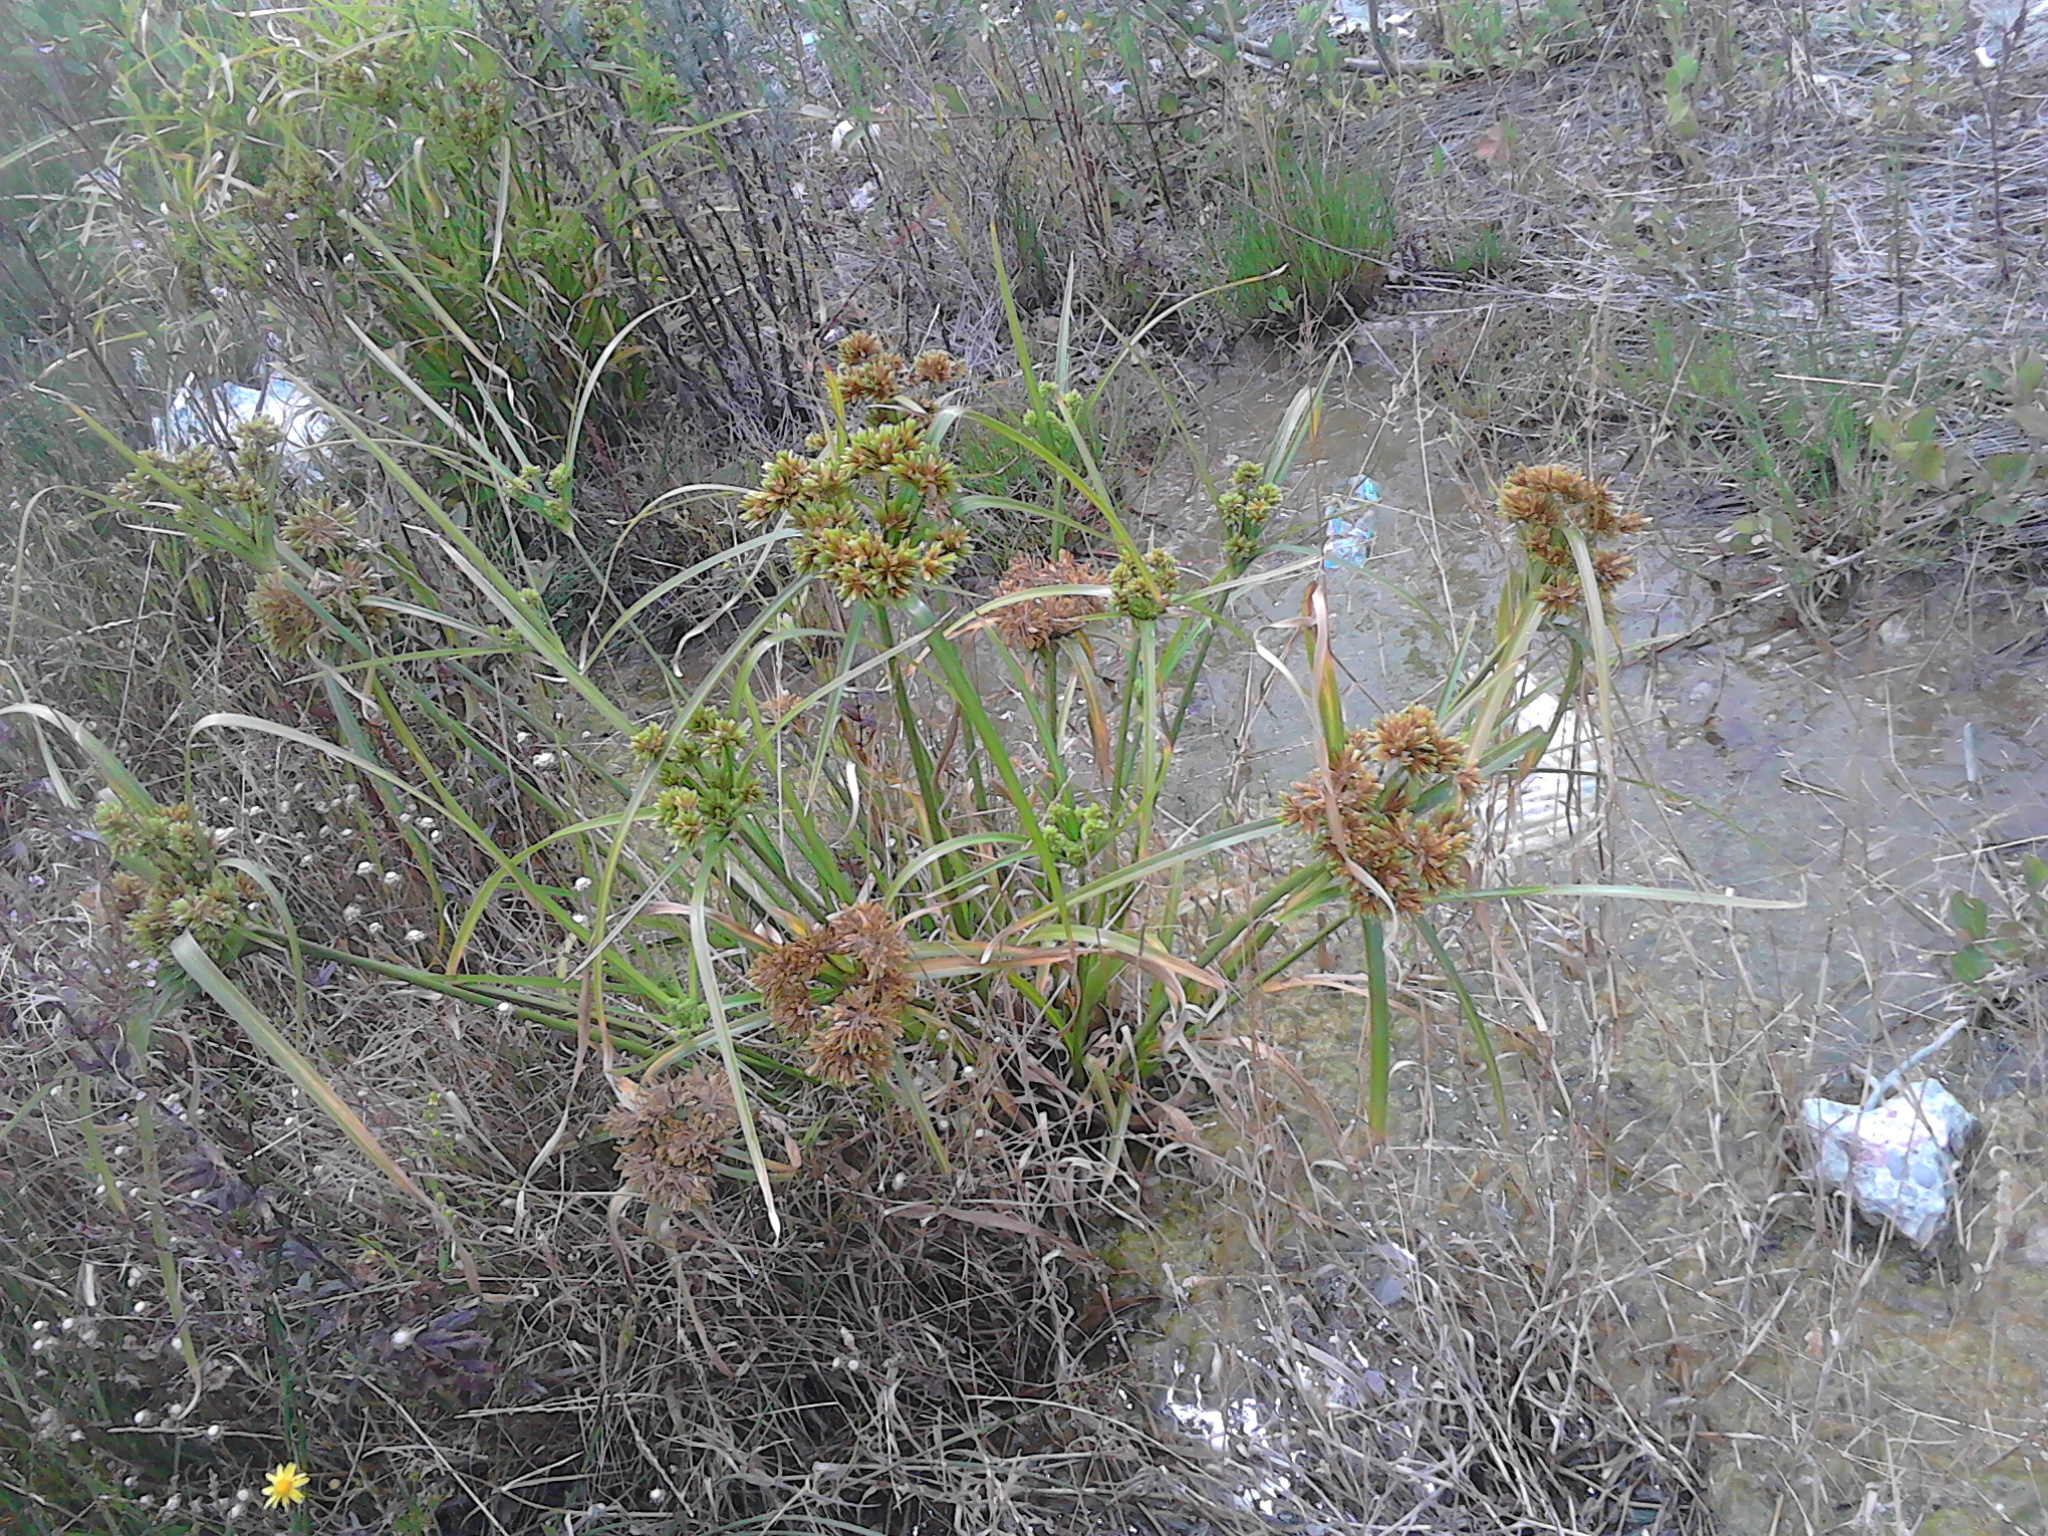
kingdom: Plantae
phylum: Tracheophyta
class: Liliopsida
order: Poales
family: Cyperaceae
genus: Cyperus
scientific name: Cyperus eragrostis
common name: Tall flatsedge
